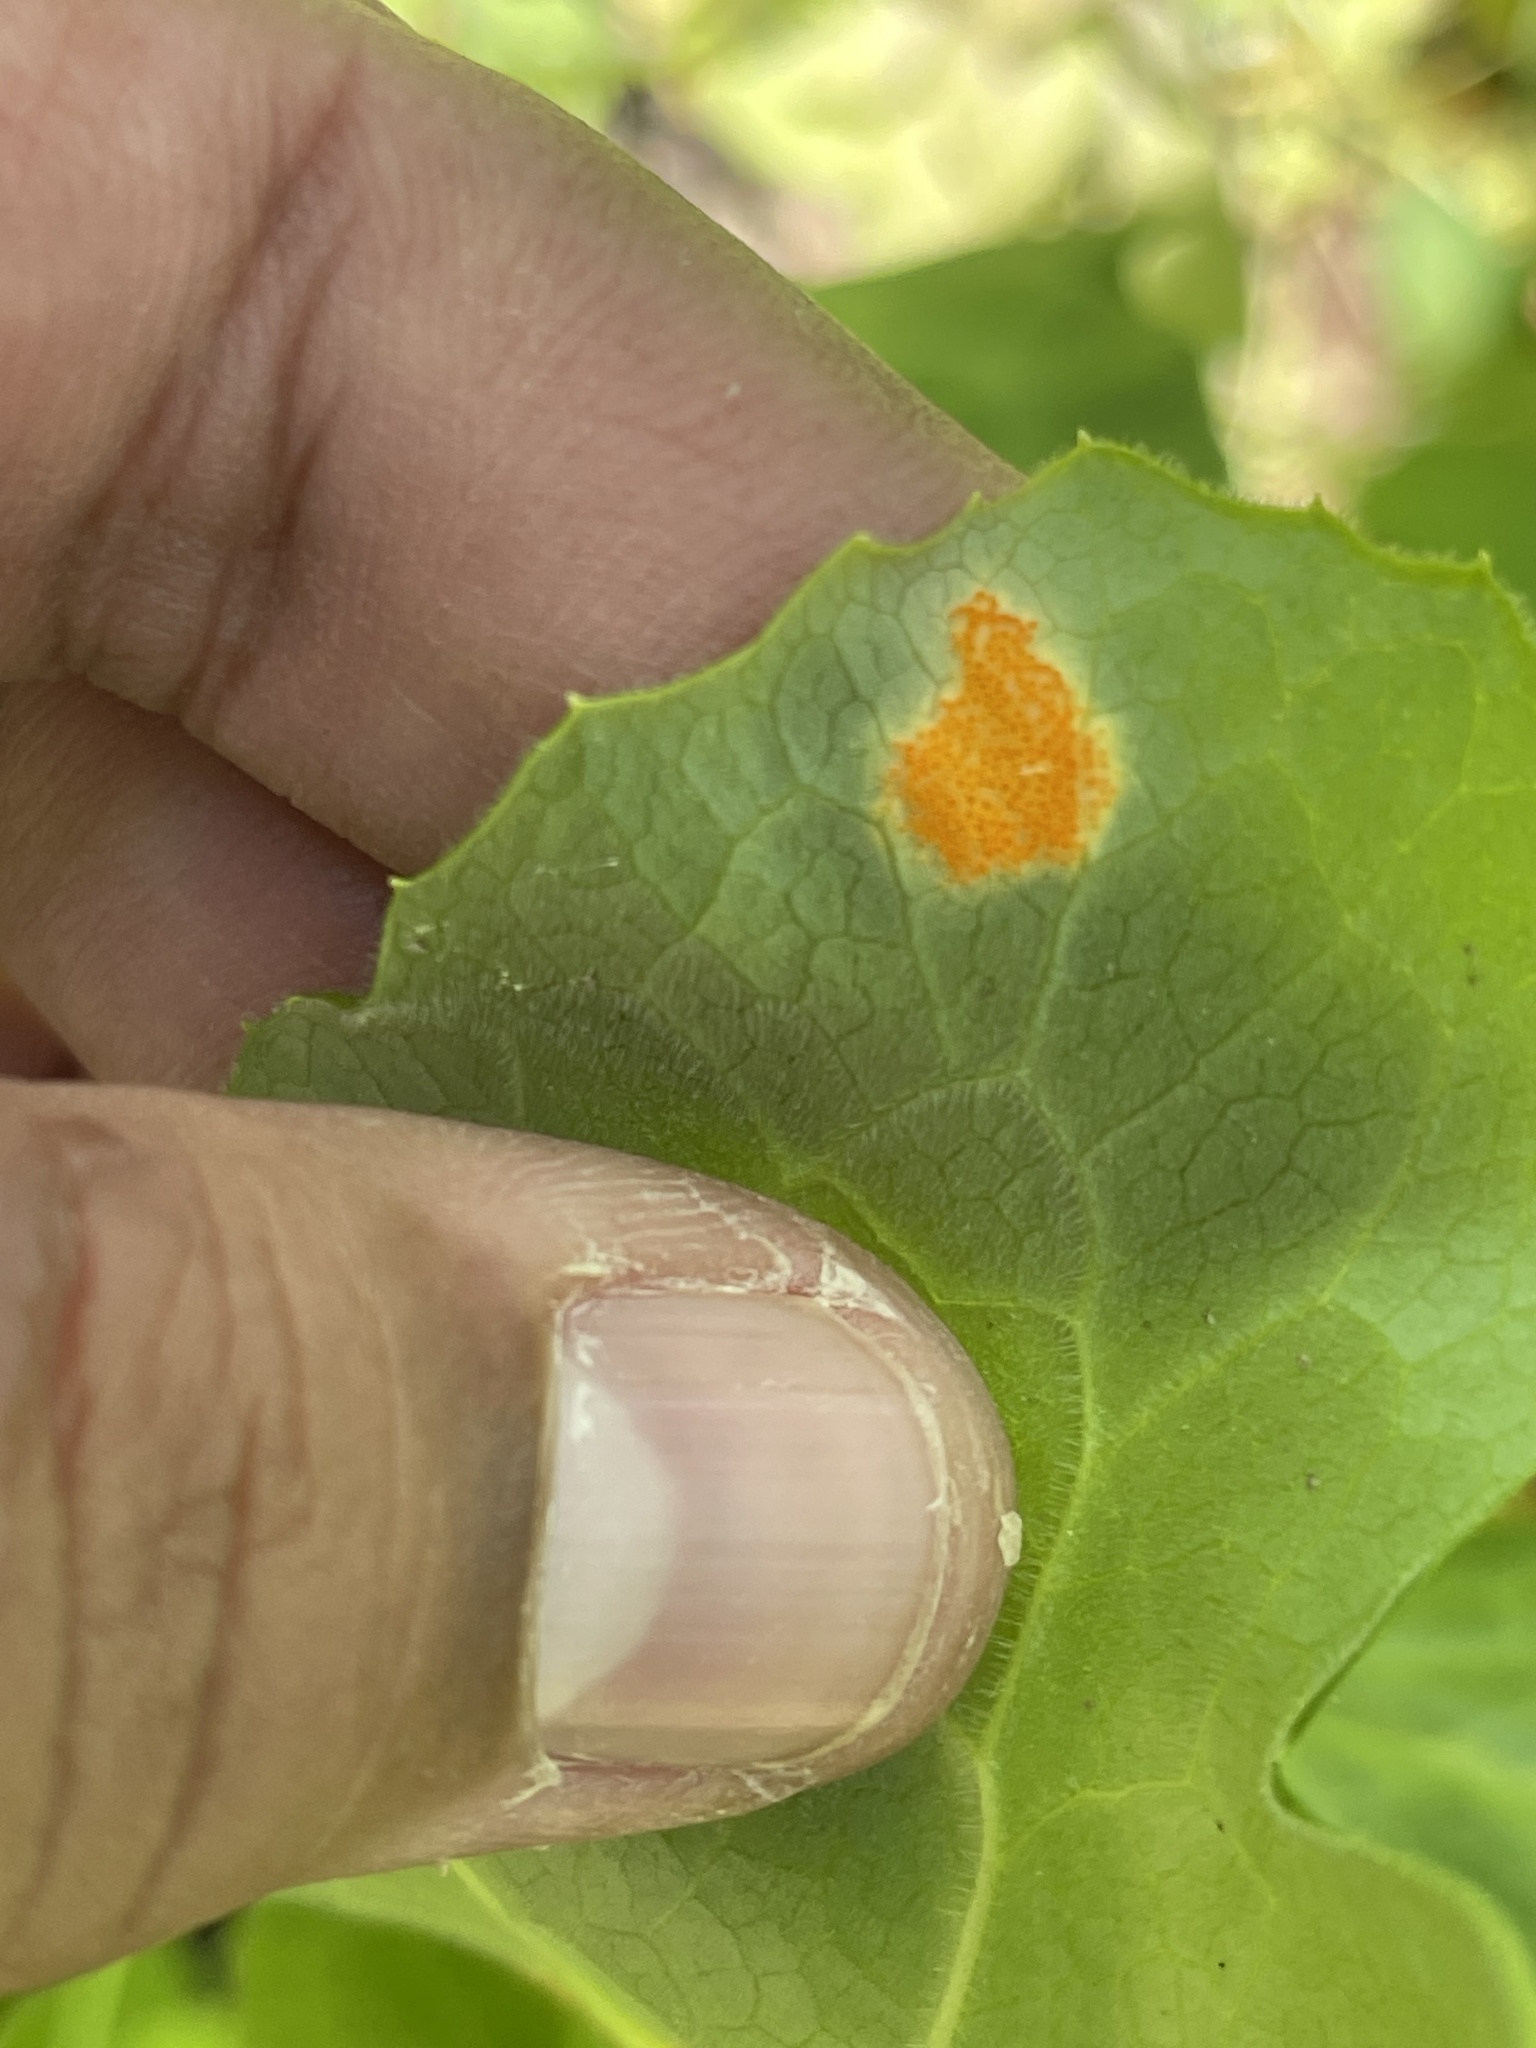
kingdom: Fungi
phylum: Basidiomycota
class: Pucciniomycetes
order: Pucciniales
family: Pucciniaceae
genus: Puccinia
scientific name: Puccinia podophylli
